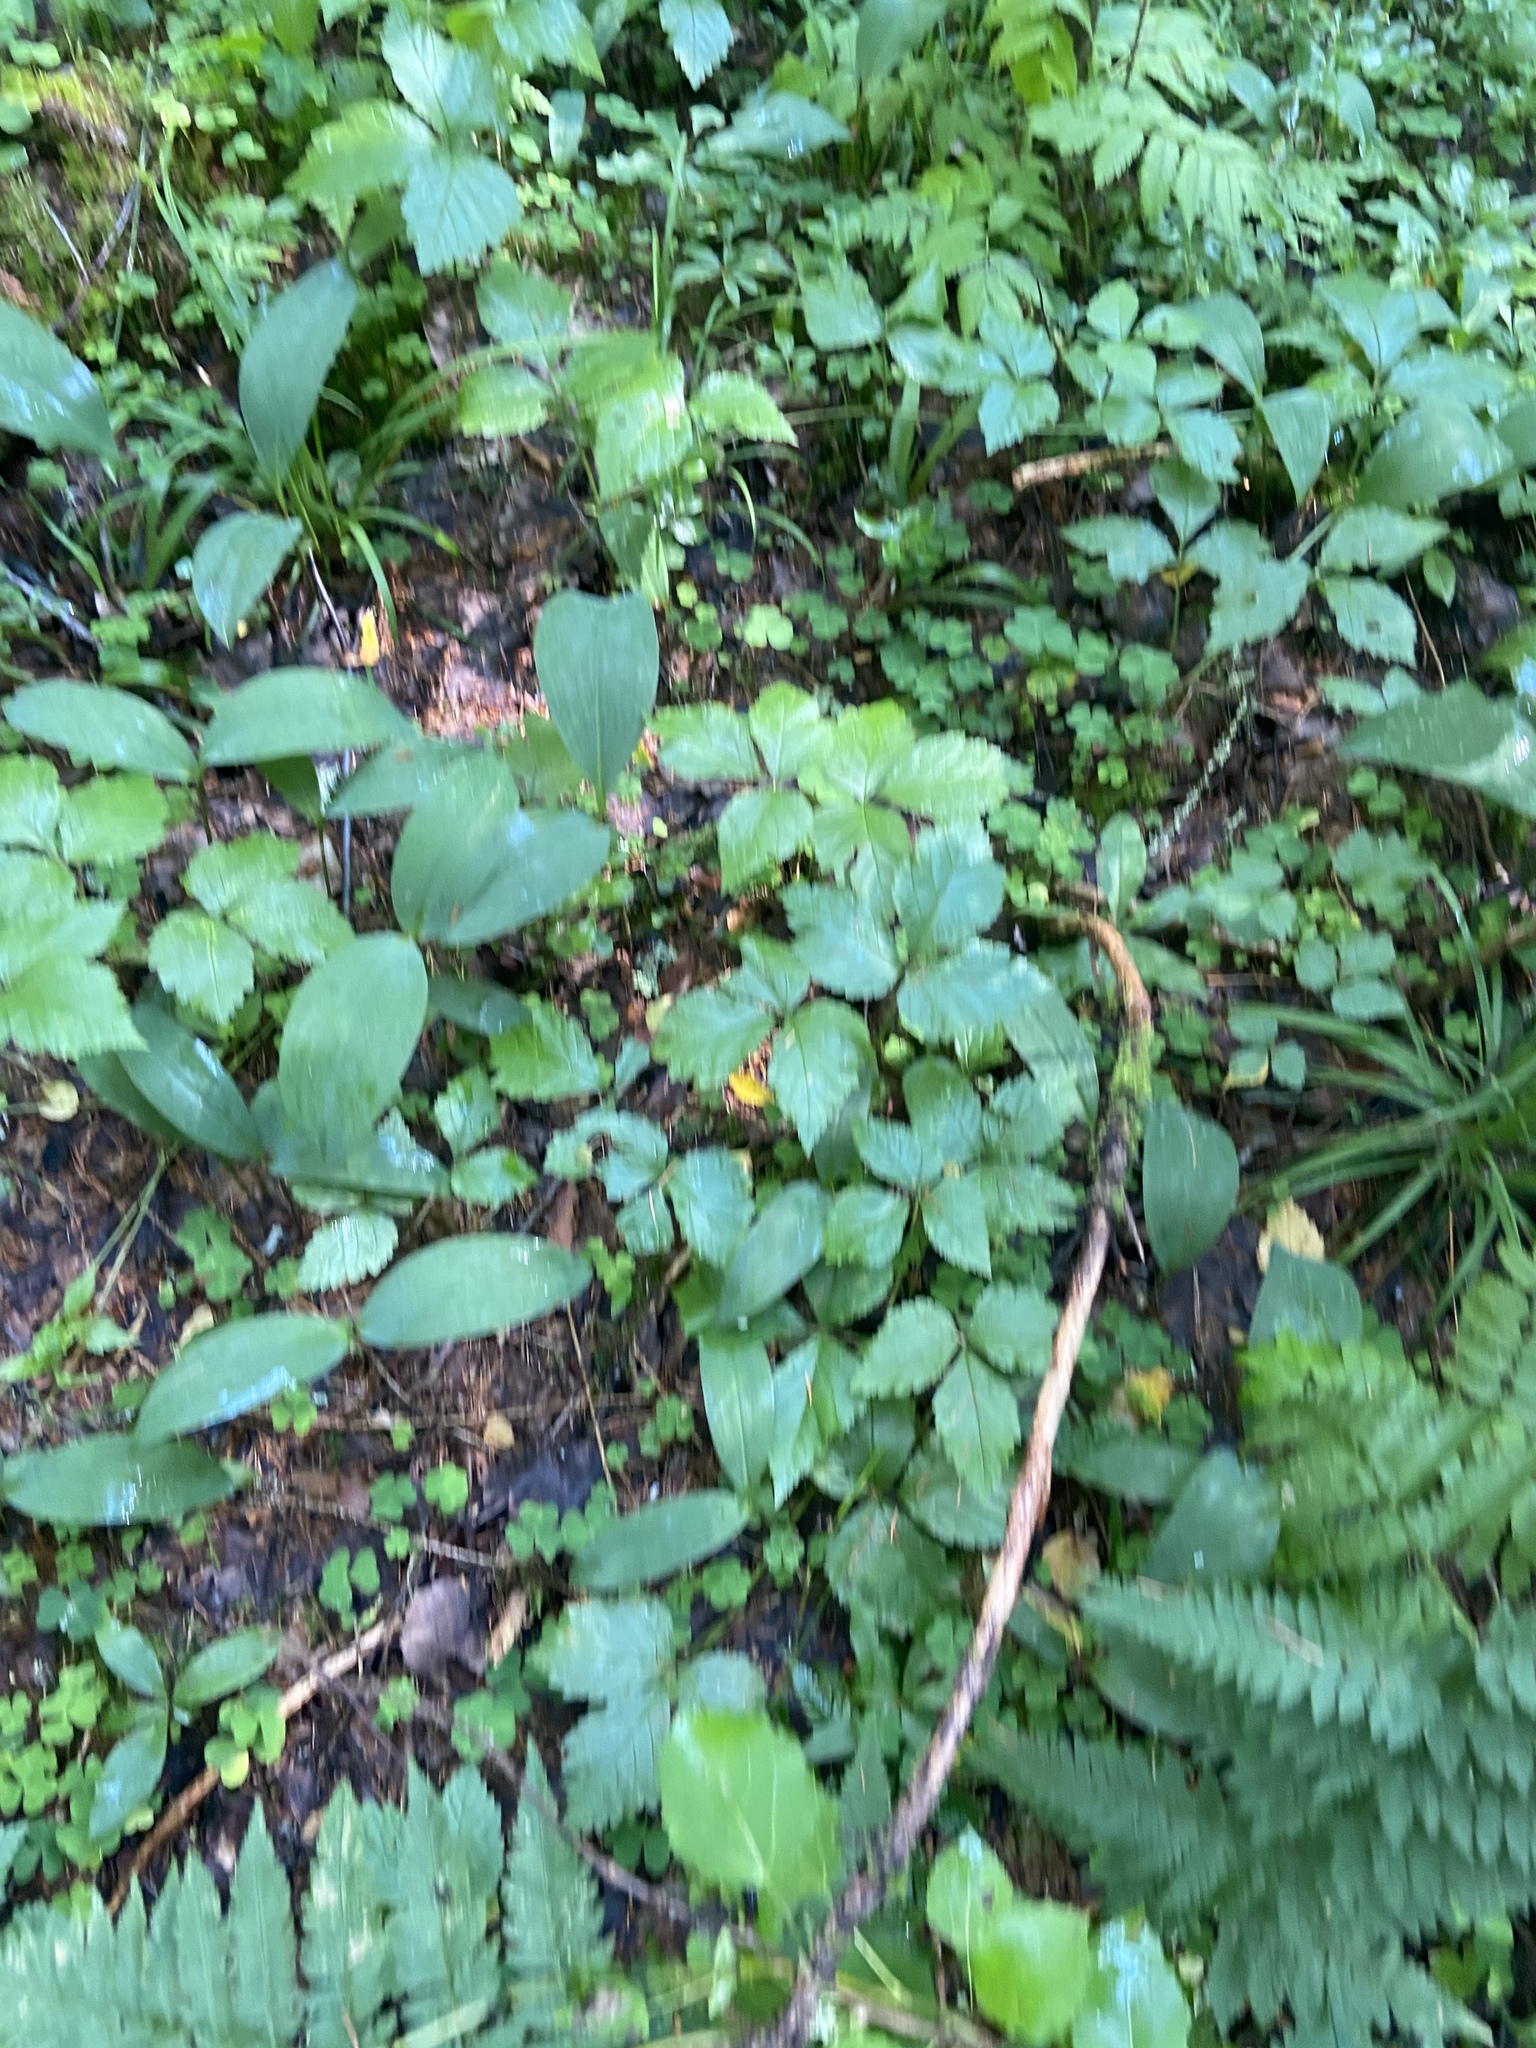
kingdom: Plantae
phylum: Tracheophyta
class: Liliopsida
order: Asparagales
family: Asparagaceae
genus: Convallaria
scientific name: Convallaria majalis
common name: Lily-of-the-valley
